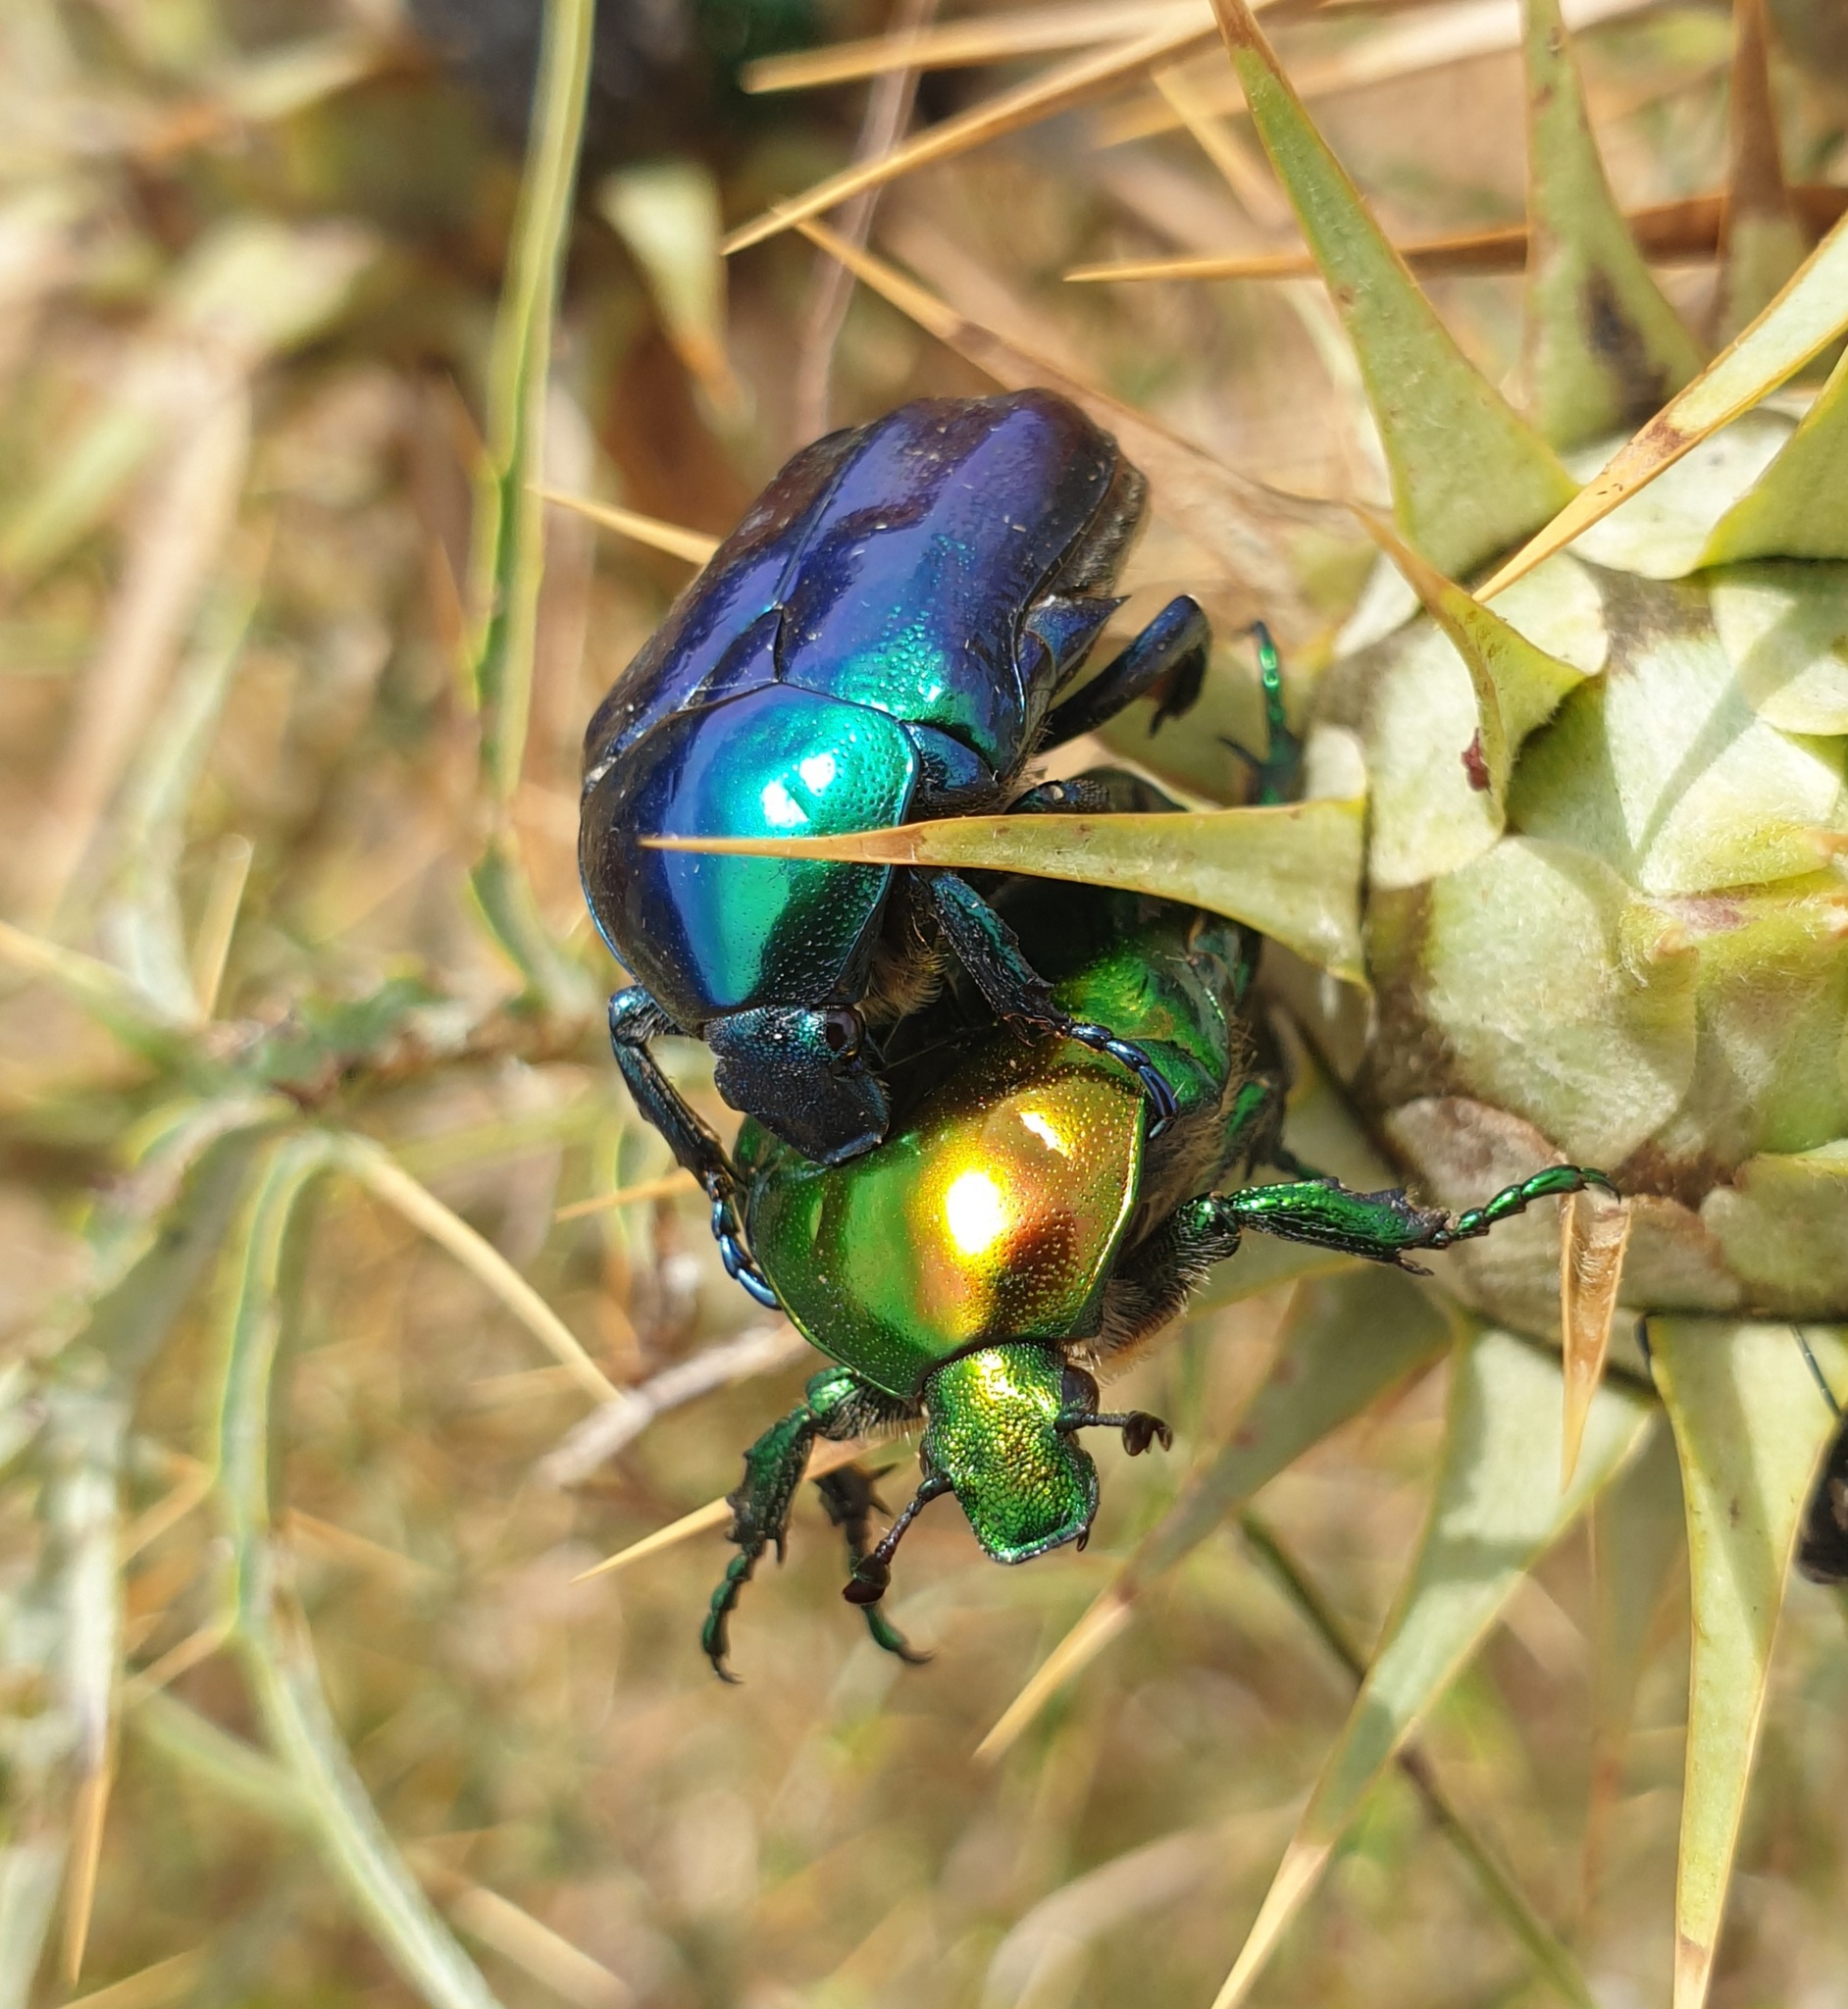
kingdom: Animalia
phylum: Arthropoda
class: Insecta
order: Coleoptera
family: Scarabaeidae
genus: Protaetia
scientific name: Protaetia affinis
